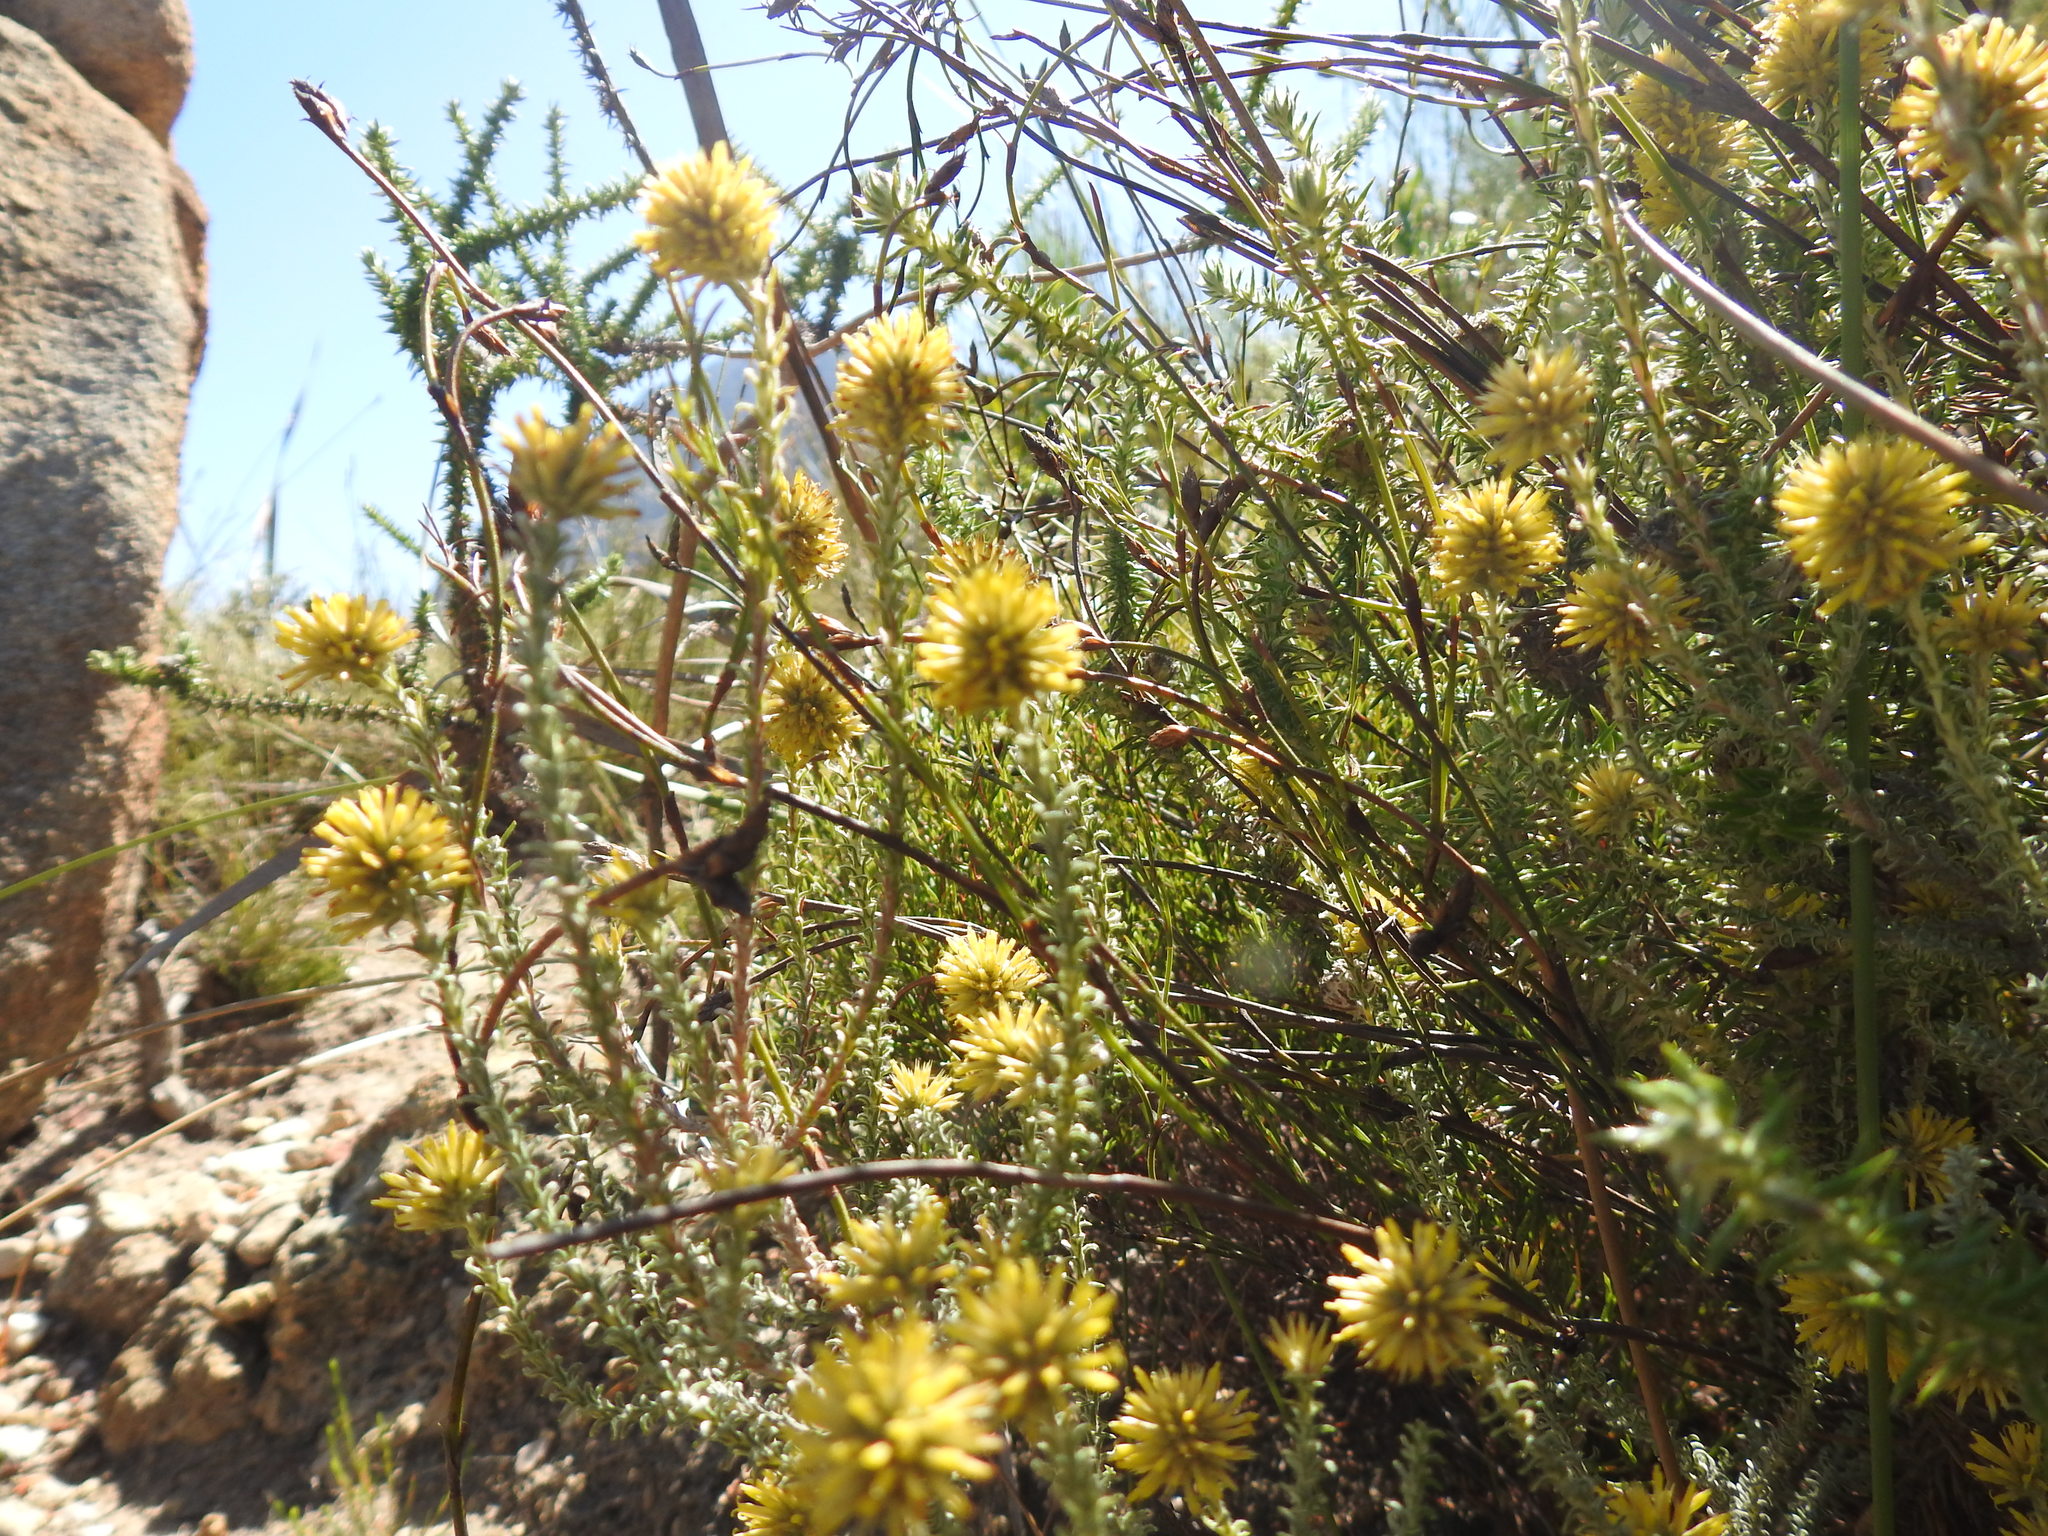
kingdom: Plantae
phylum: Tracheophyta
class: Magnoliopsida
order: Asterales
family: Asteraceae
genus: Seriphium
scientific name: Seriphium spirale
